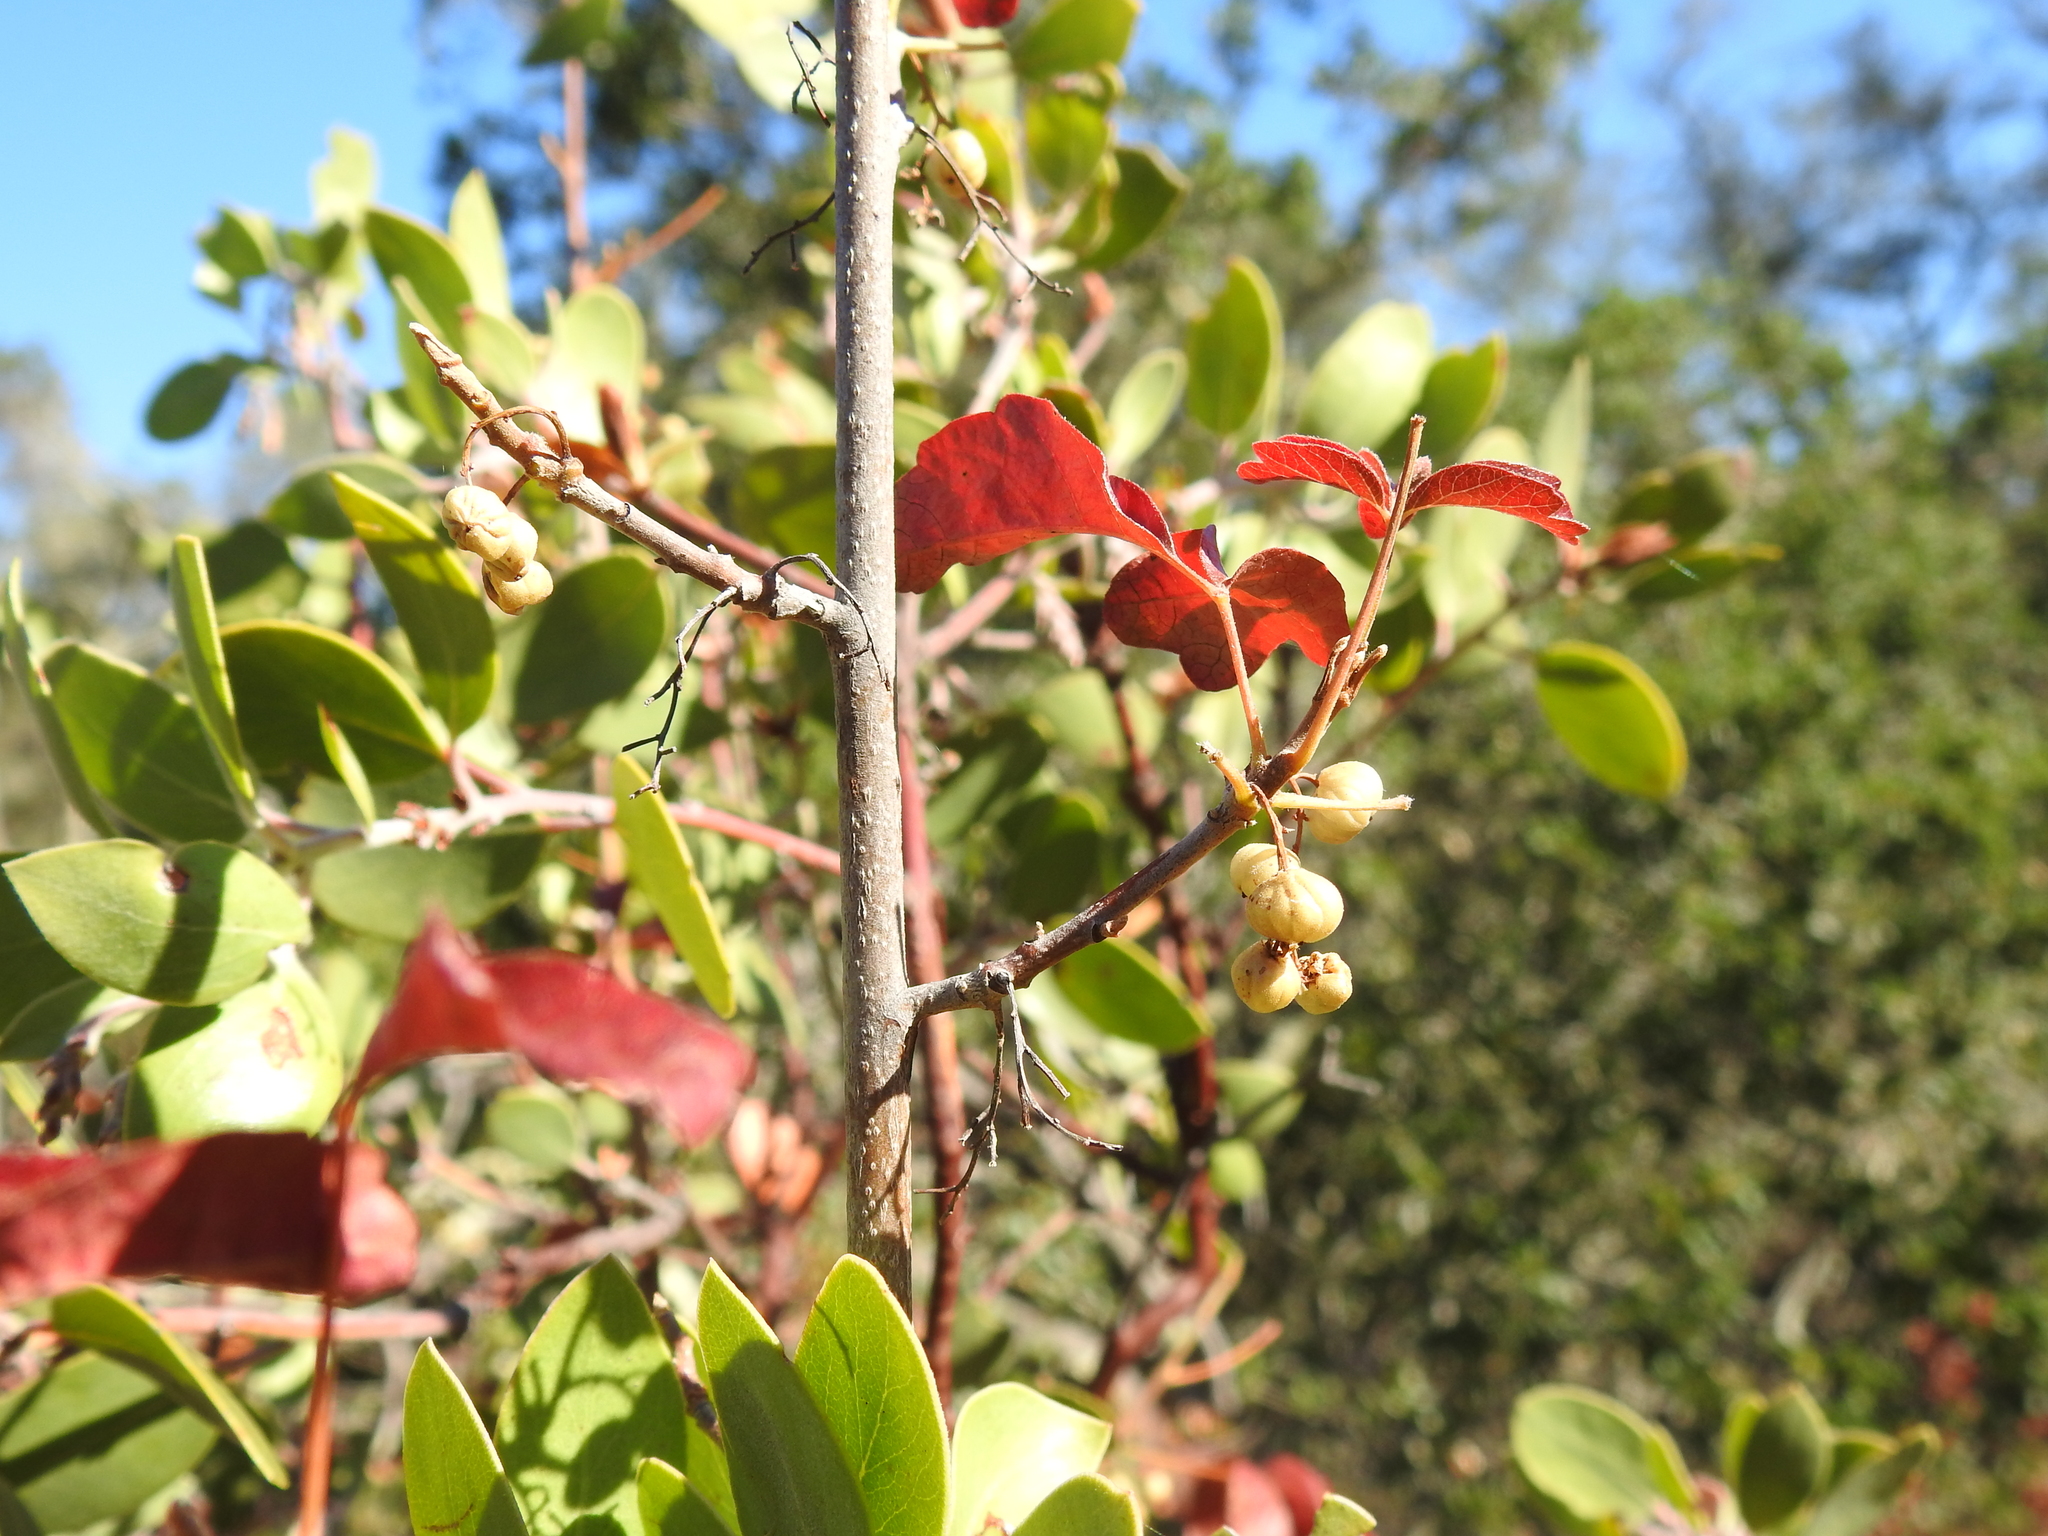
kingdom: Plantae
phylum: Tracheophyta
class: Magnoliopsida
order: Sapindales
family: Anacardiaceae
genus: Toxicodendron
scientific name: Toxicodendron diversilobum
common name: Pacific poison-oak
